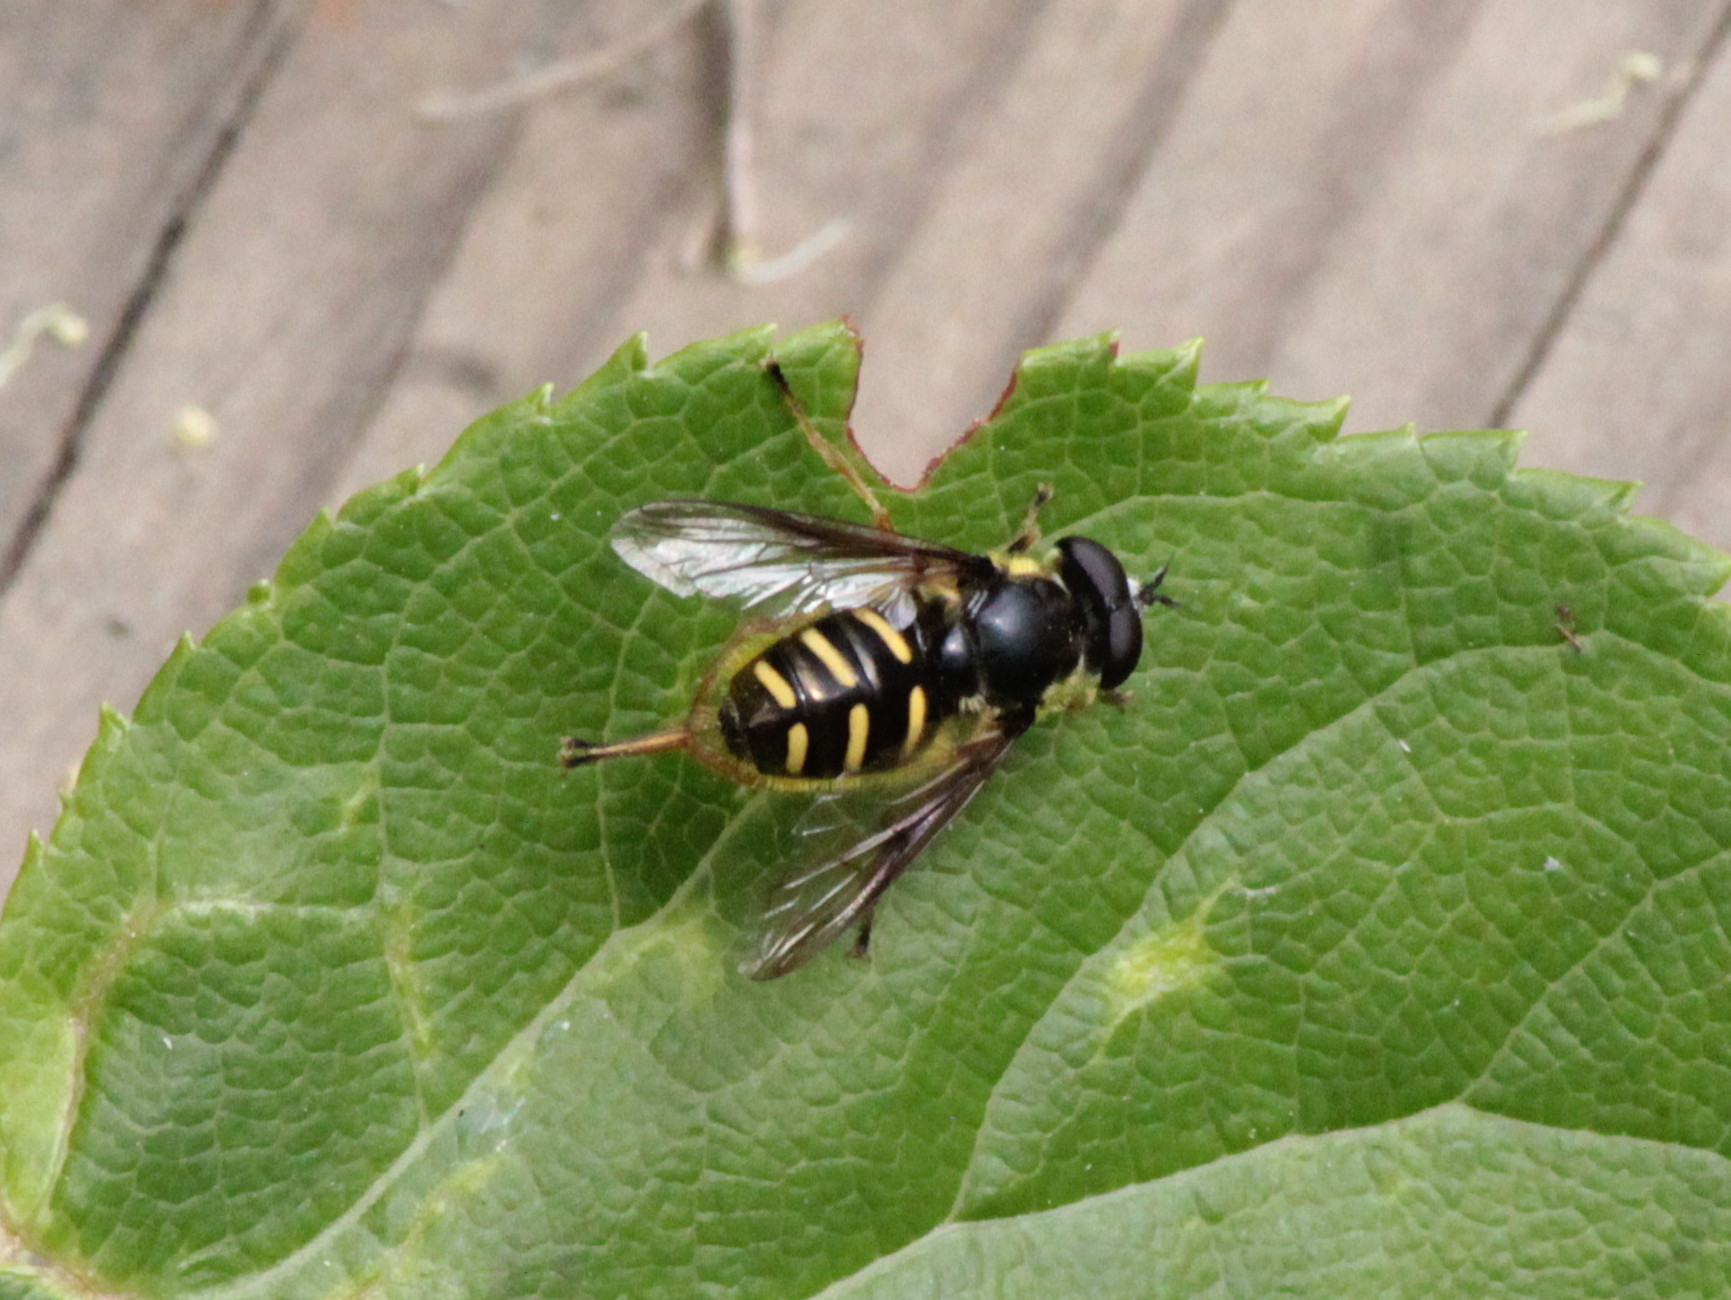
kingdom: Animalia
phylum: Arthropoda
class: Insecta
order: Diptera
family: Syrphidae
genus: Sericomyia
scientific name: Sericomyia chrysotoxoides
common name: Oblique-banded pond fly
